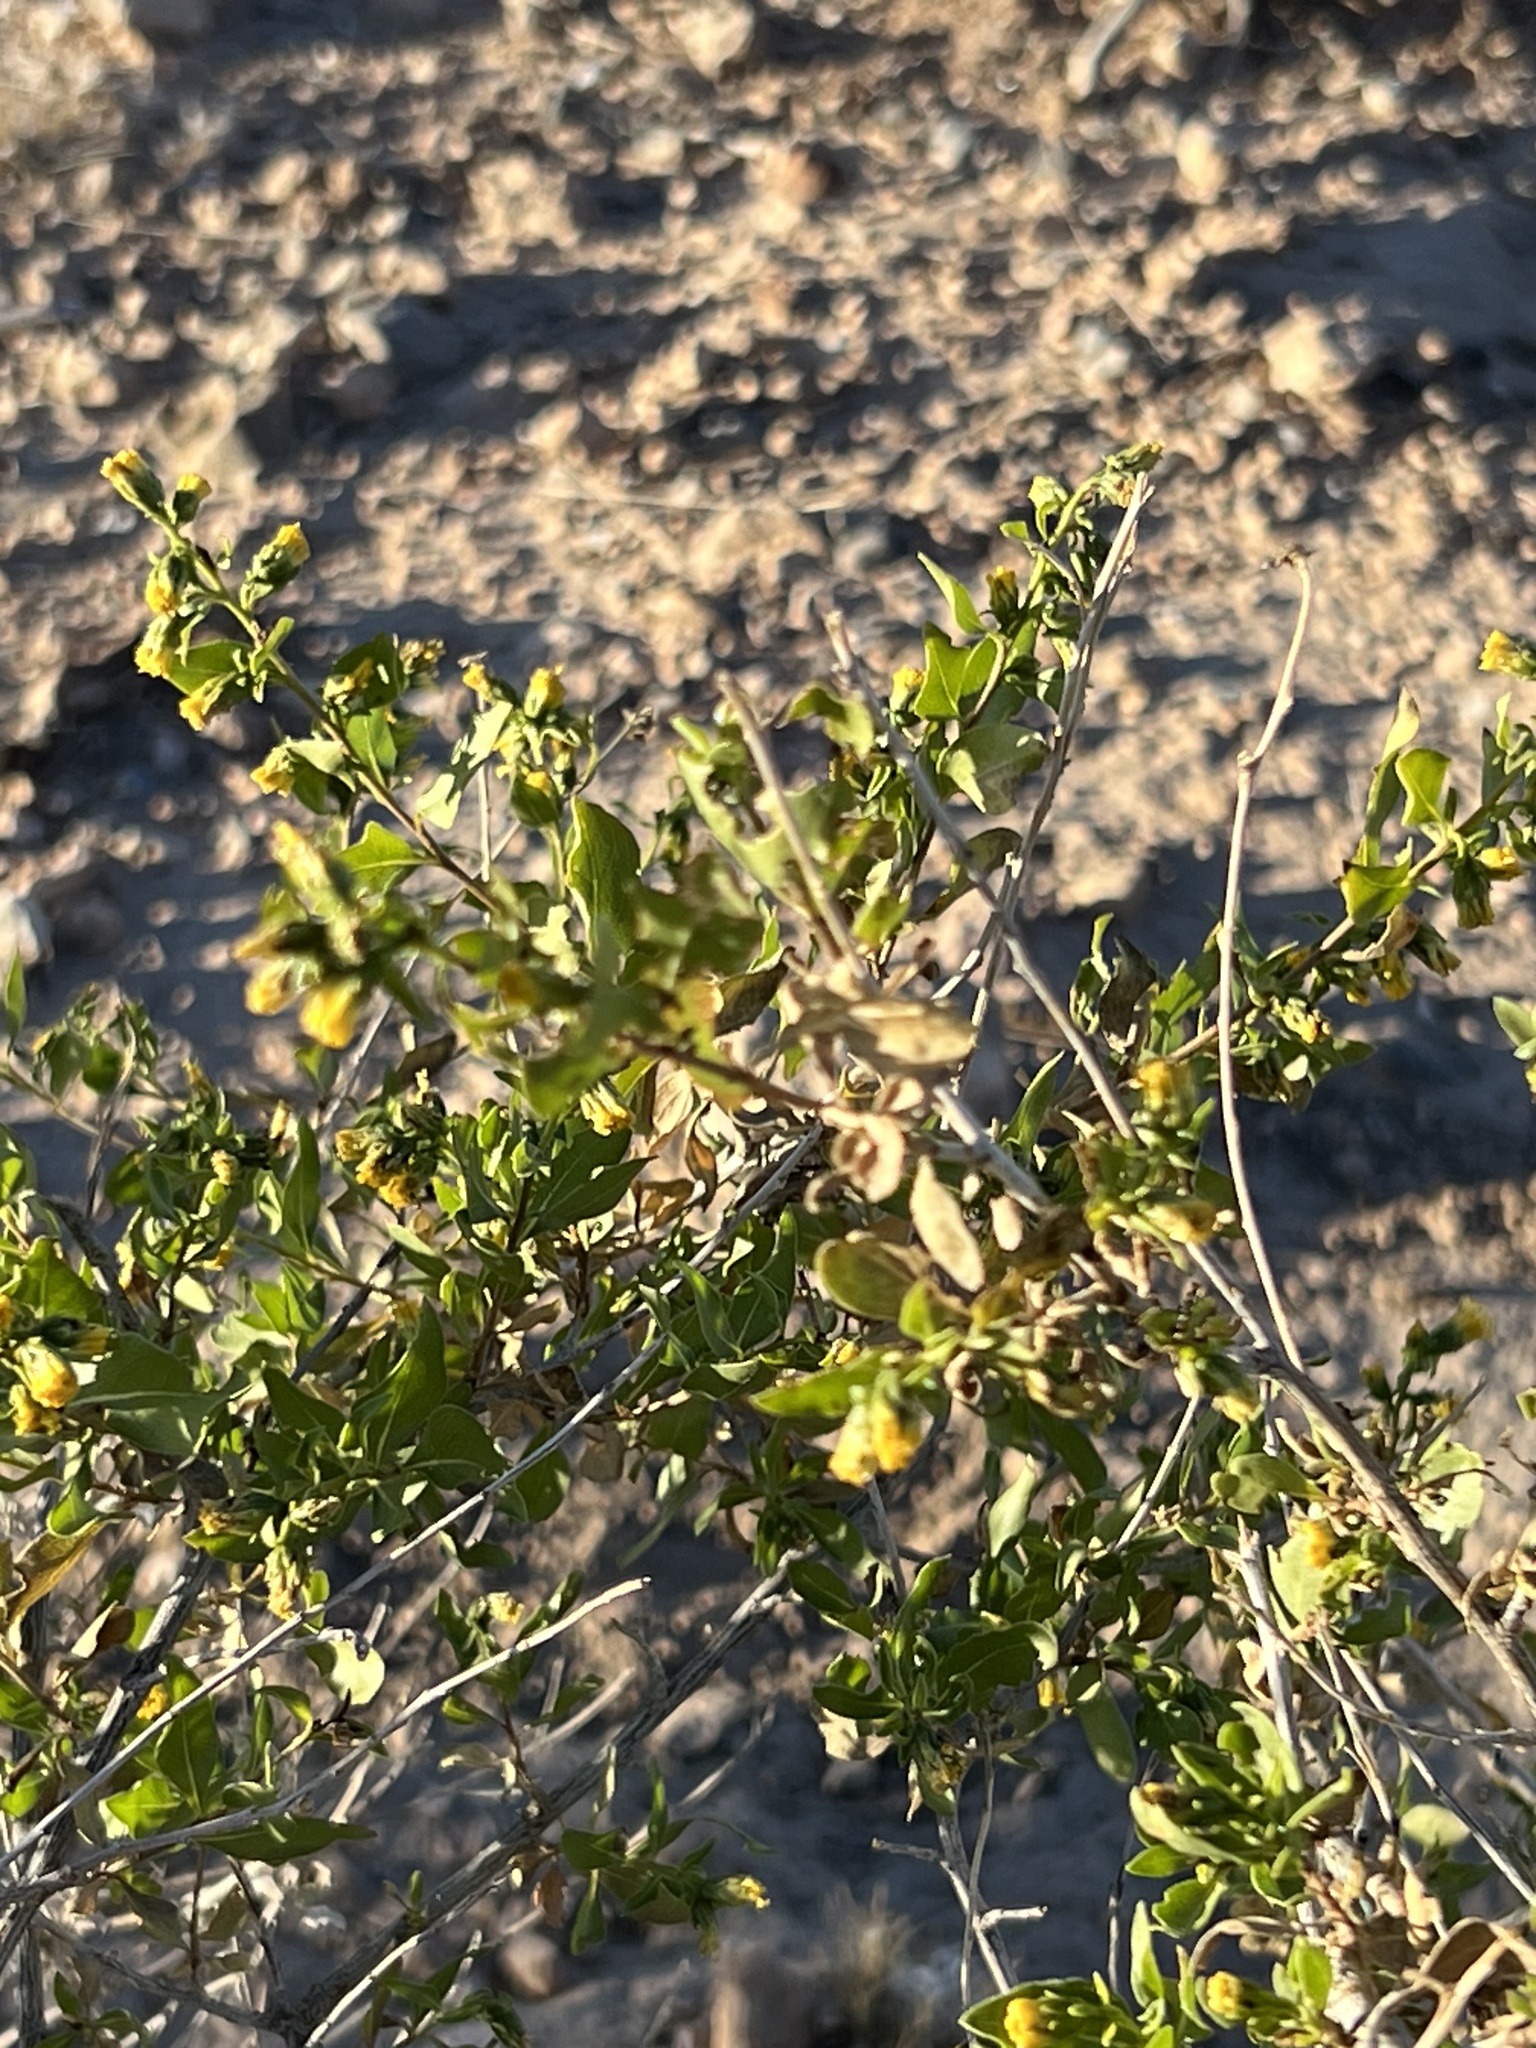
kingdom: Plantae
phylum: Tracheophyta
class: Magnoliopsida
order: Asterales
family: Asteraceae
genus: Flourensia
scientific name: Flourensia cernua
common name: Varnishbush
